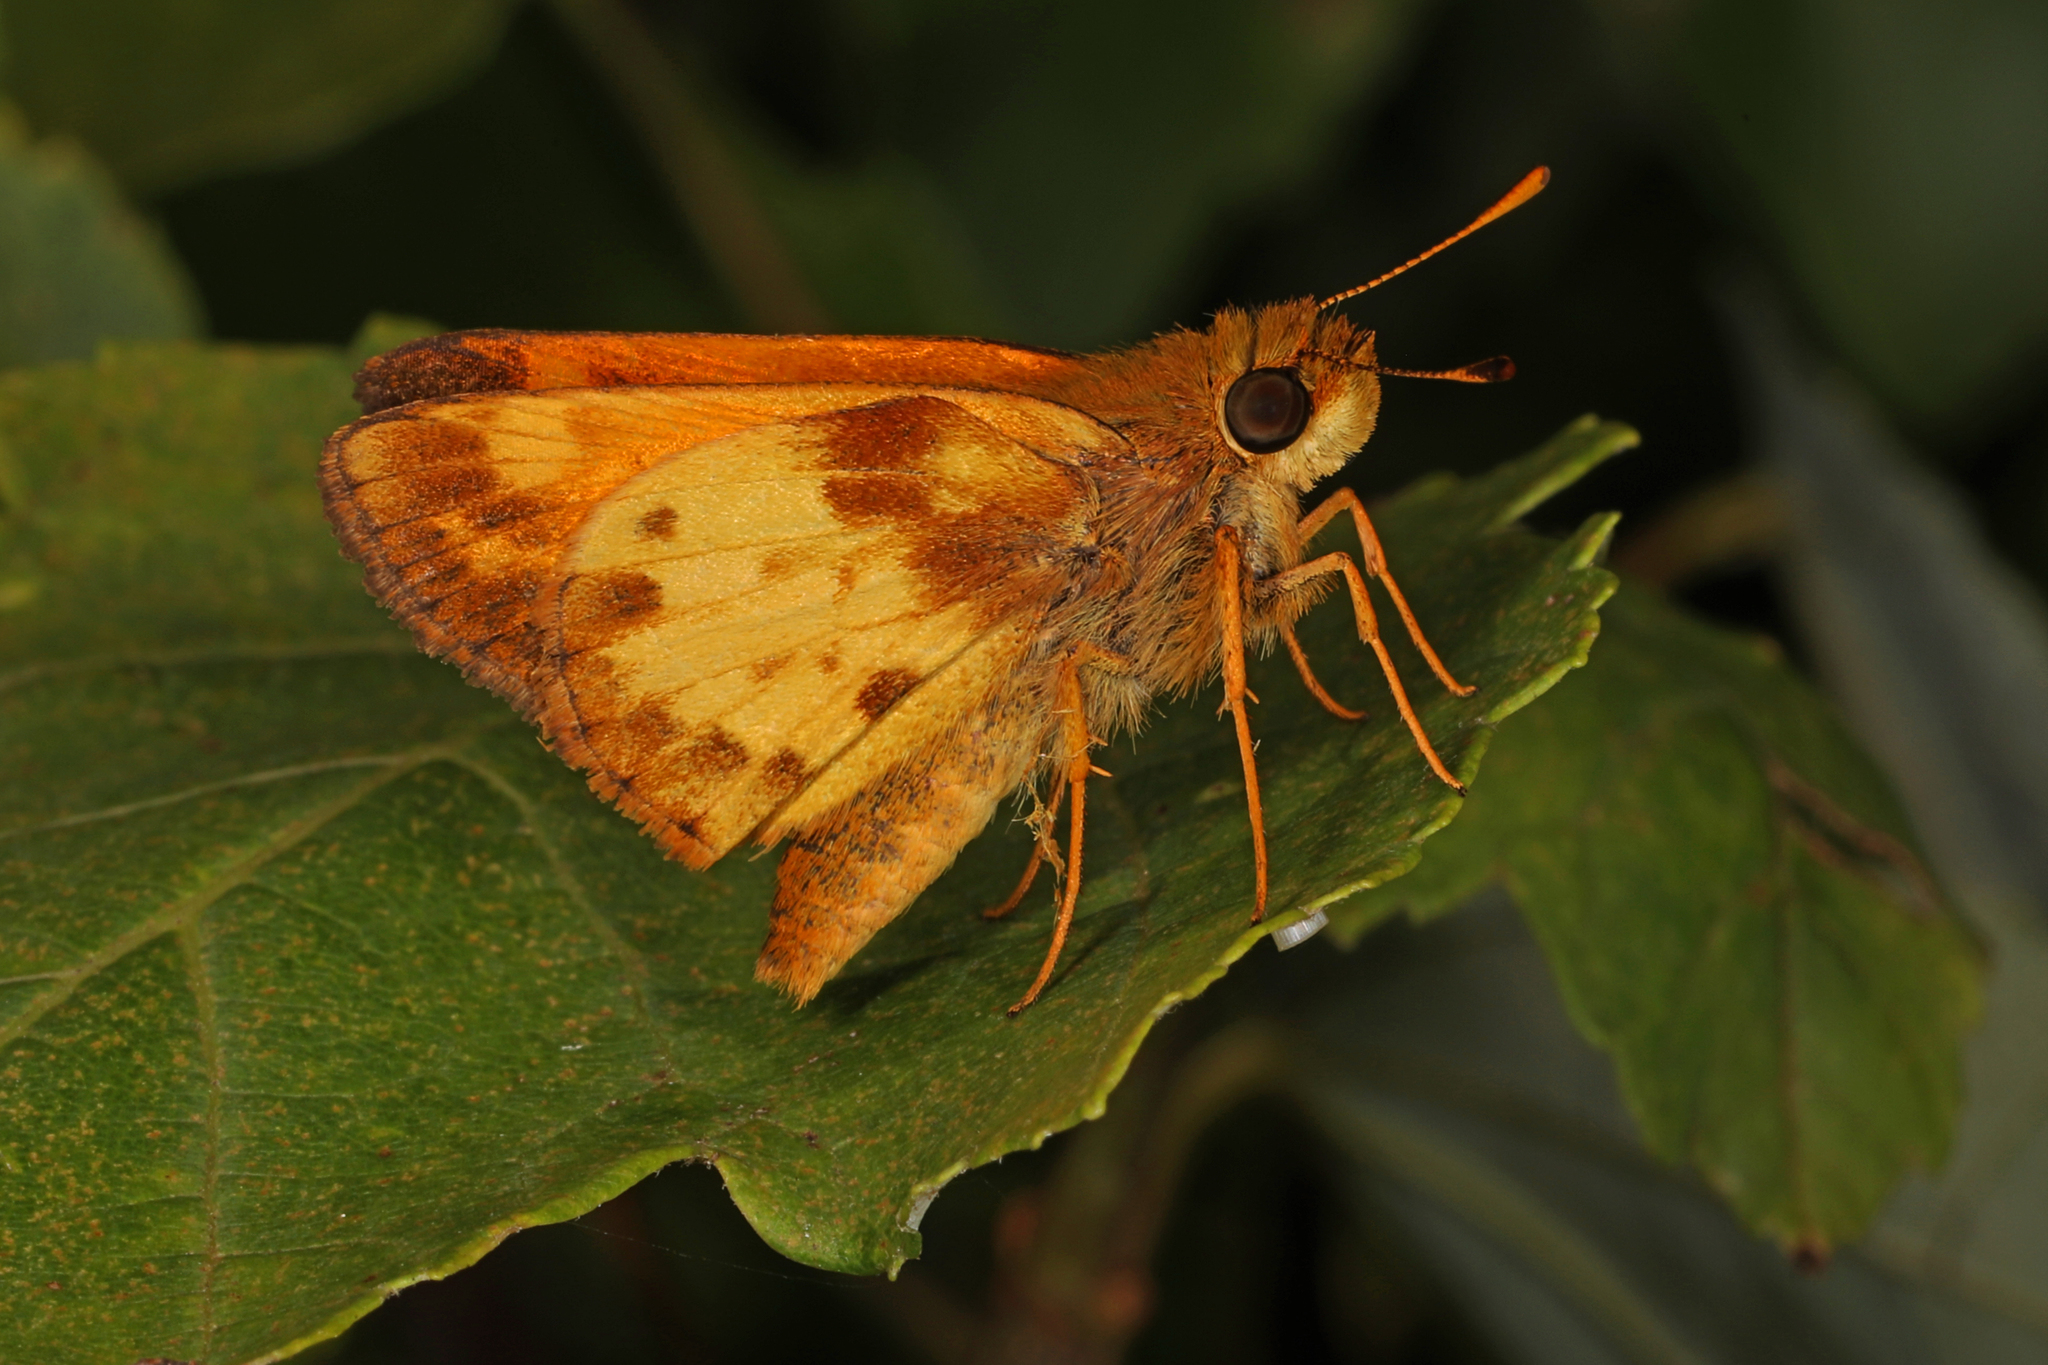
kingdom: Animalia
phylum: Arthropoda
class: Insecta
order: Lepidoptera
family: Hesperiidae
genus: Lon
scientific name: Lon zabulon
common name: Zabulon skipper
